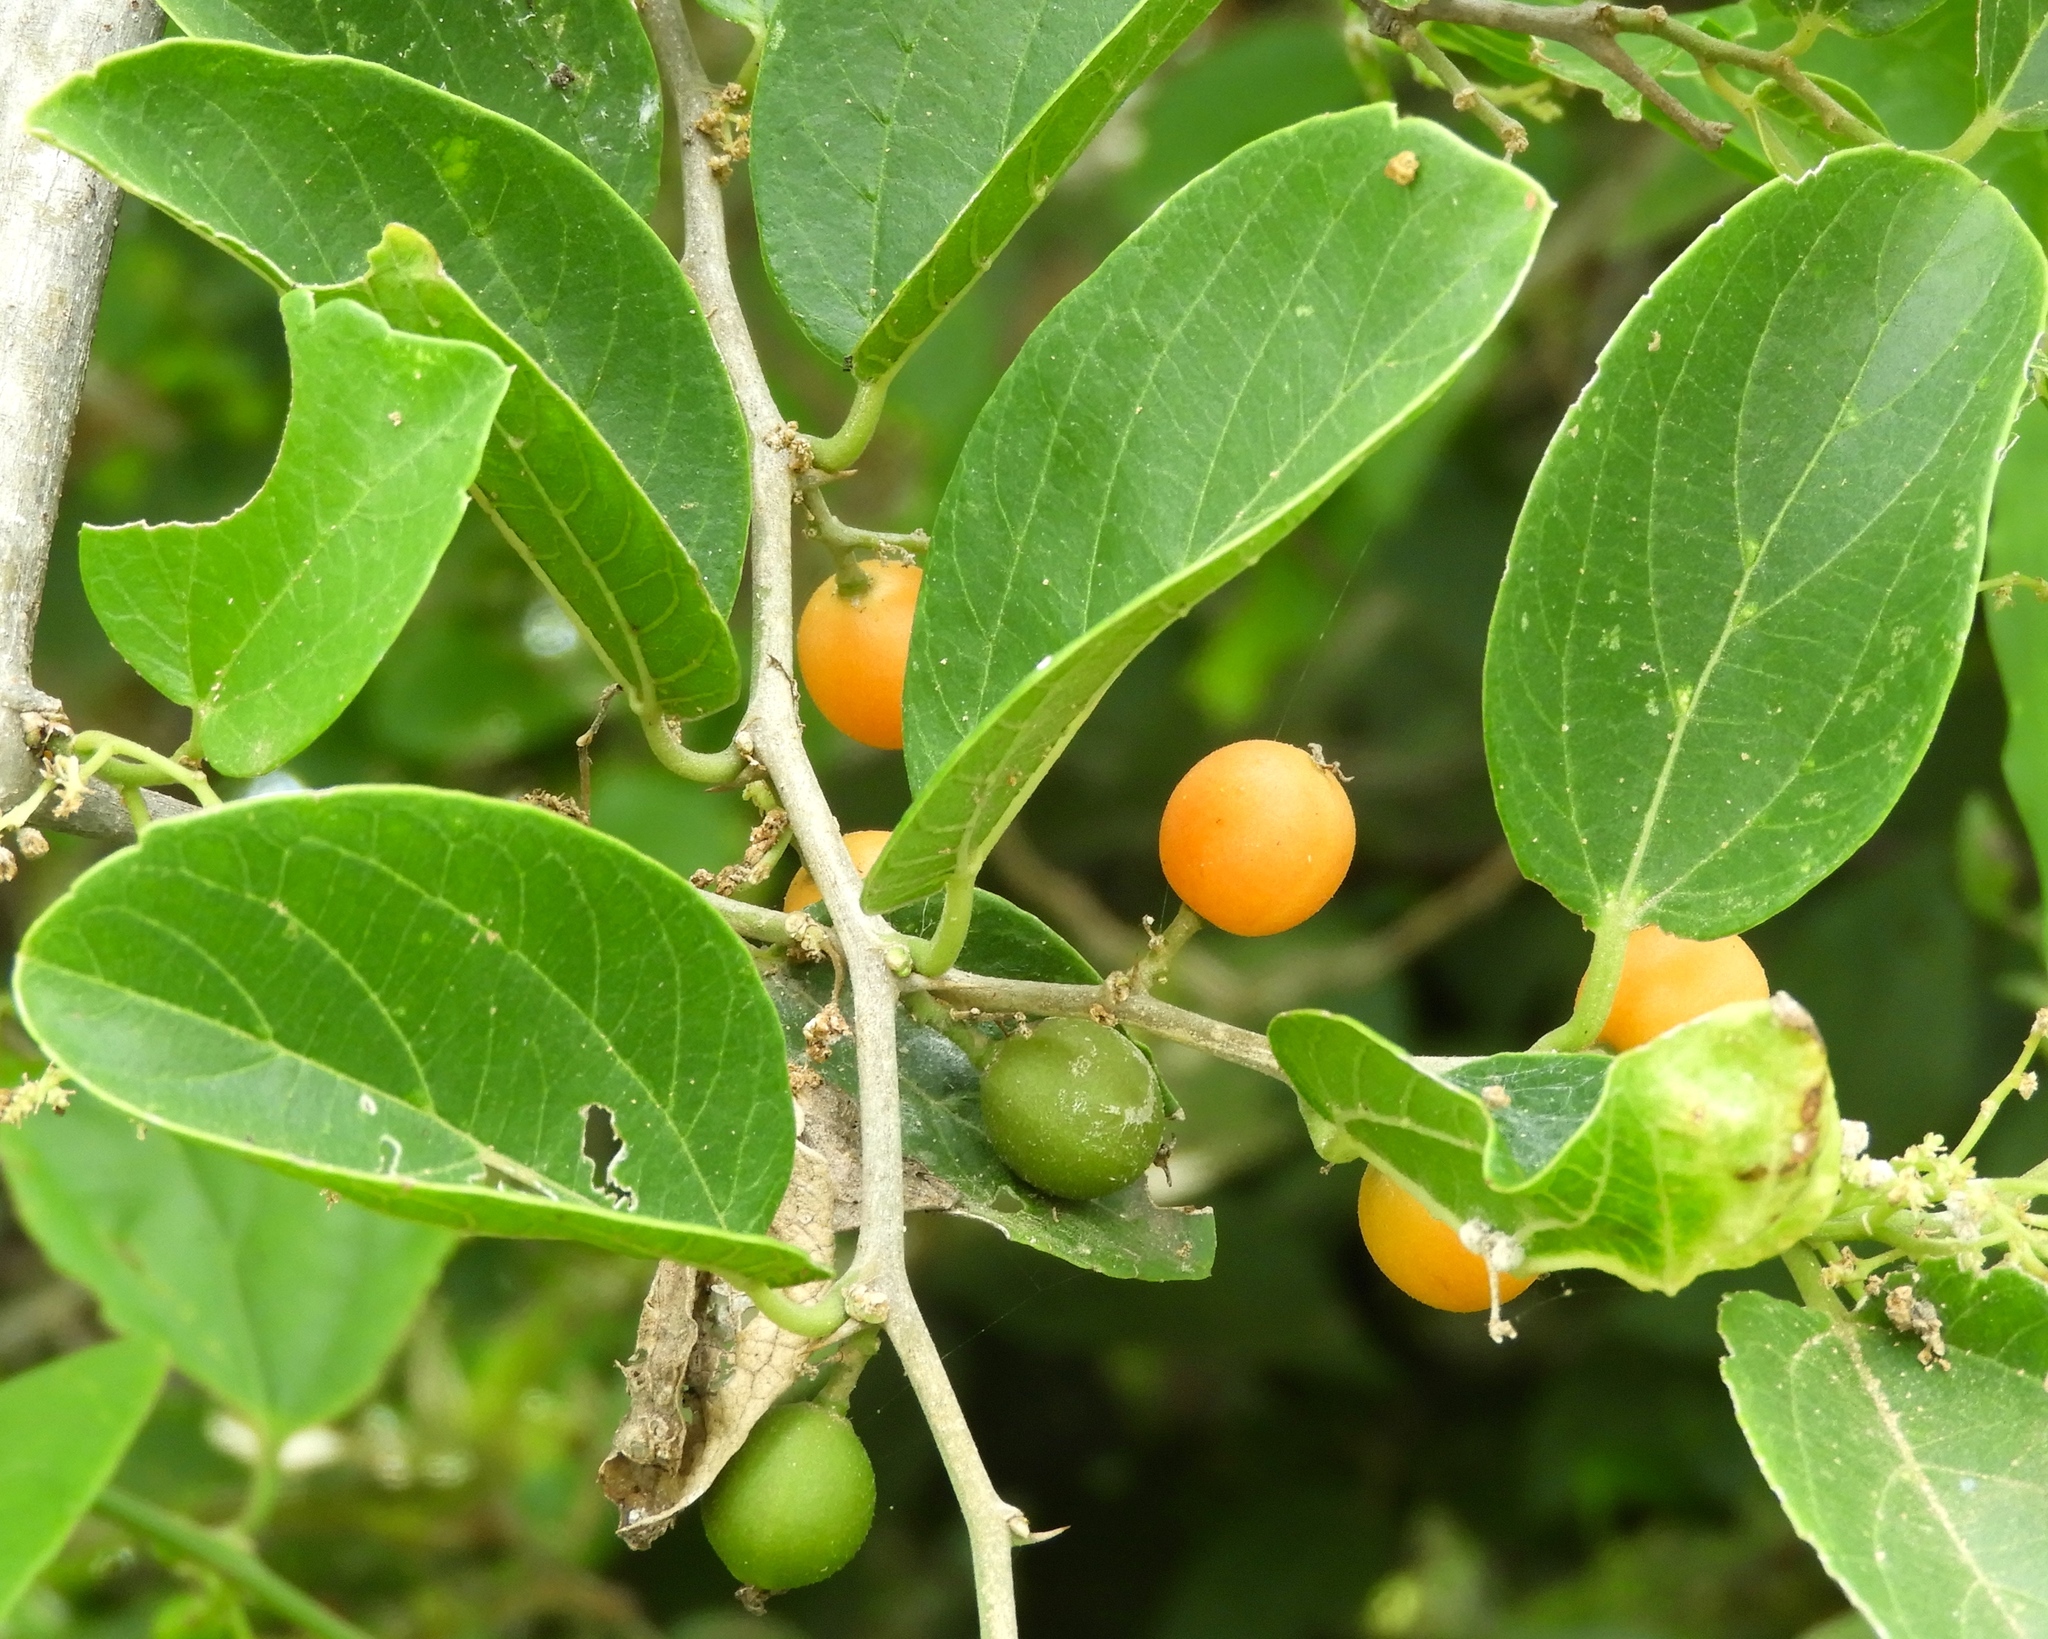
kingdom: Plantae
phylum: Tracheophyta
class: Magnoliopsida
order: Rosales
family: Cannabaceae
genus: Celtis
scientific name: Celtis iguanaea
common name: Iguana hackberry
